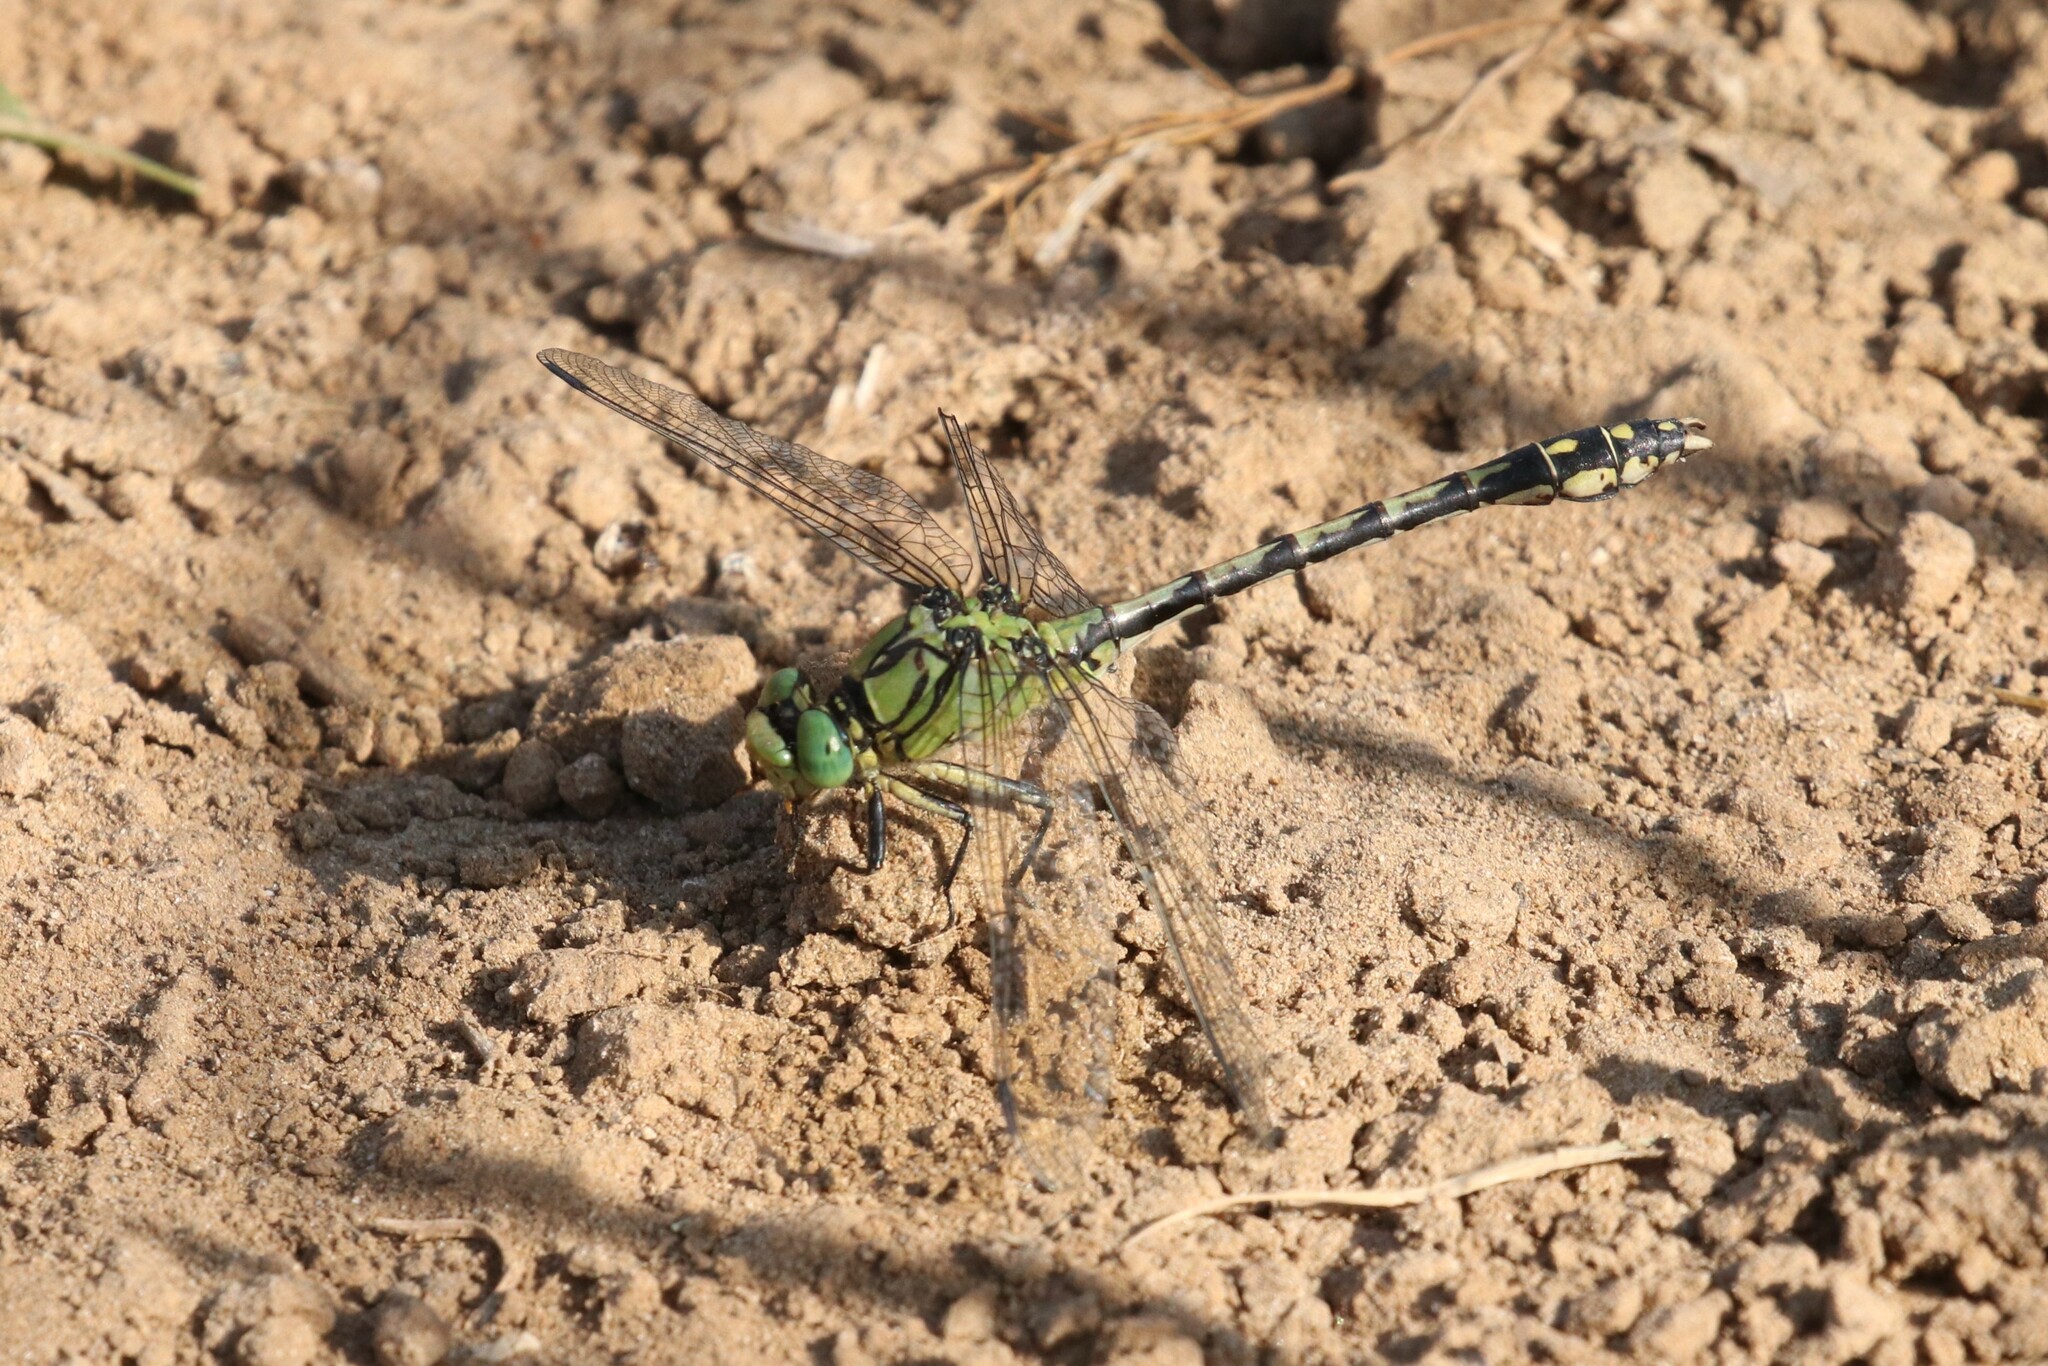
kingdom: Animalia
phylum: Arthropoda
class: Insecta
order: Odonata
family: Gomphidae
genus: Ophiogomphus
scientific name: Ophiogomphus cecilia
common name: Green snaketail
